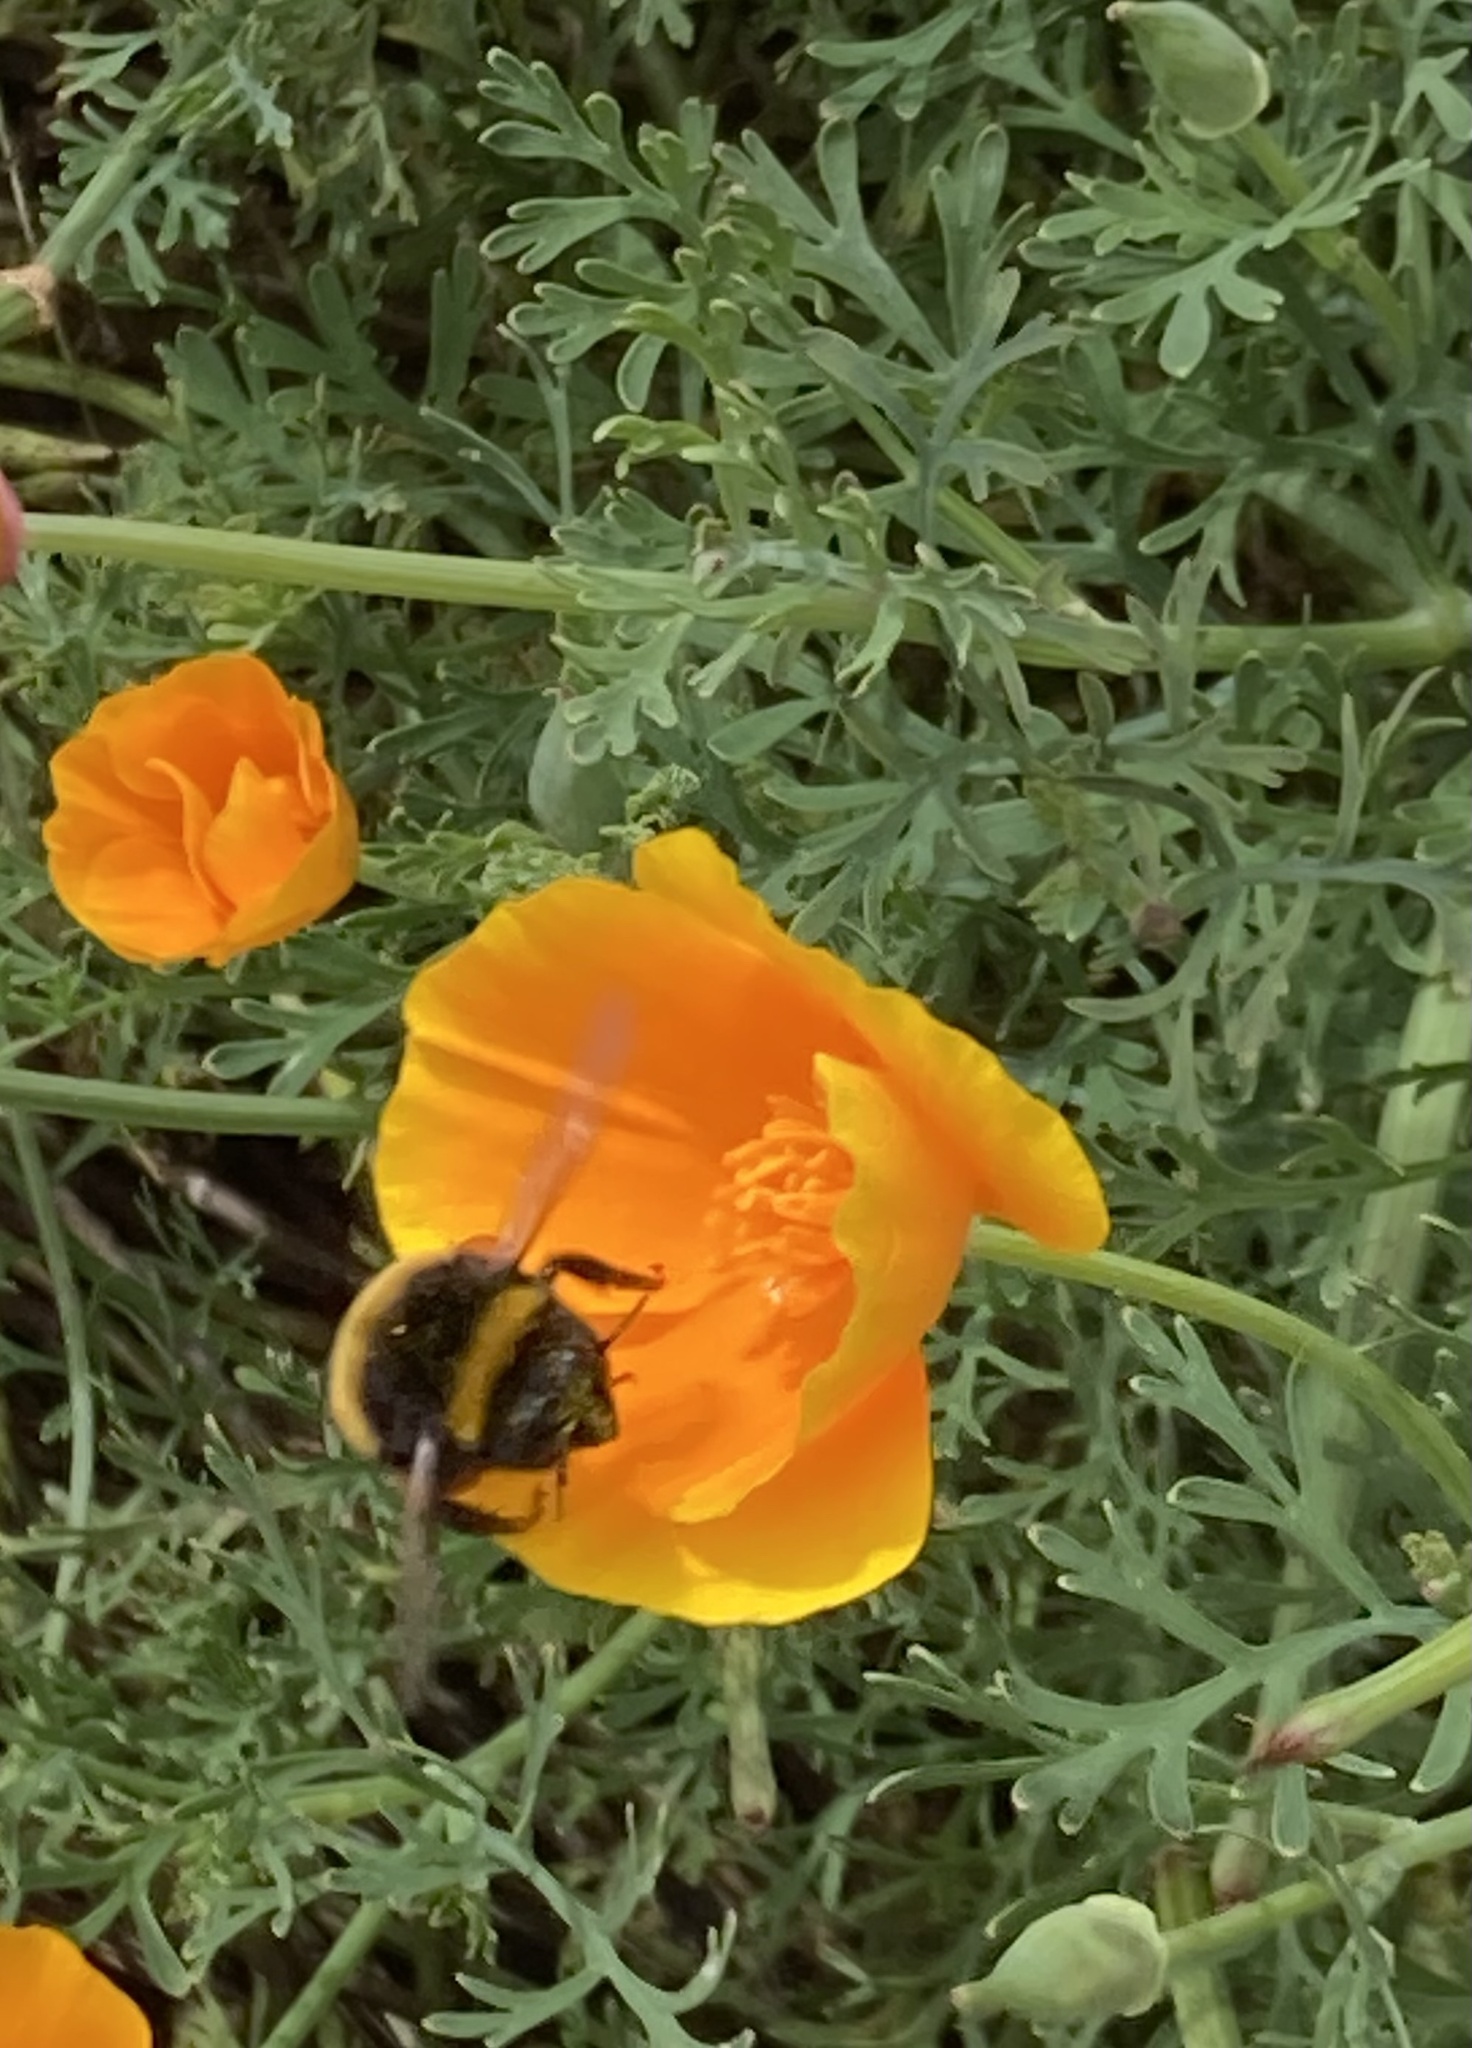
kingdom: Animalia
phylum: Arthropoda
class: Insecta
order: Hymenoptera
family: Apidae
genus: Bombus
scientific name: Bombus terrestris
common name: Buff-tailed bumblebee
